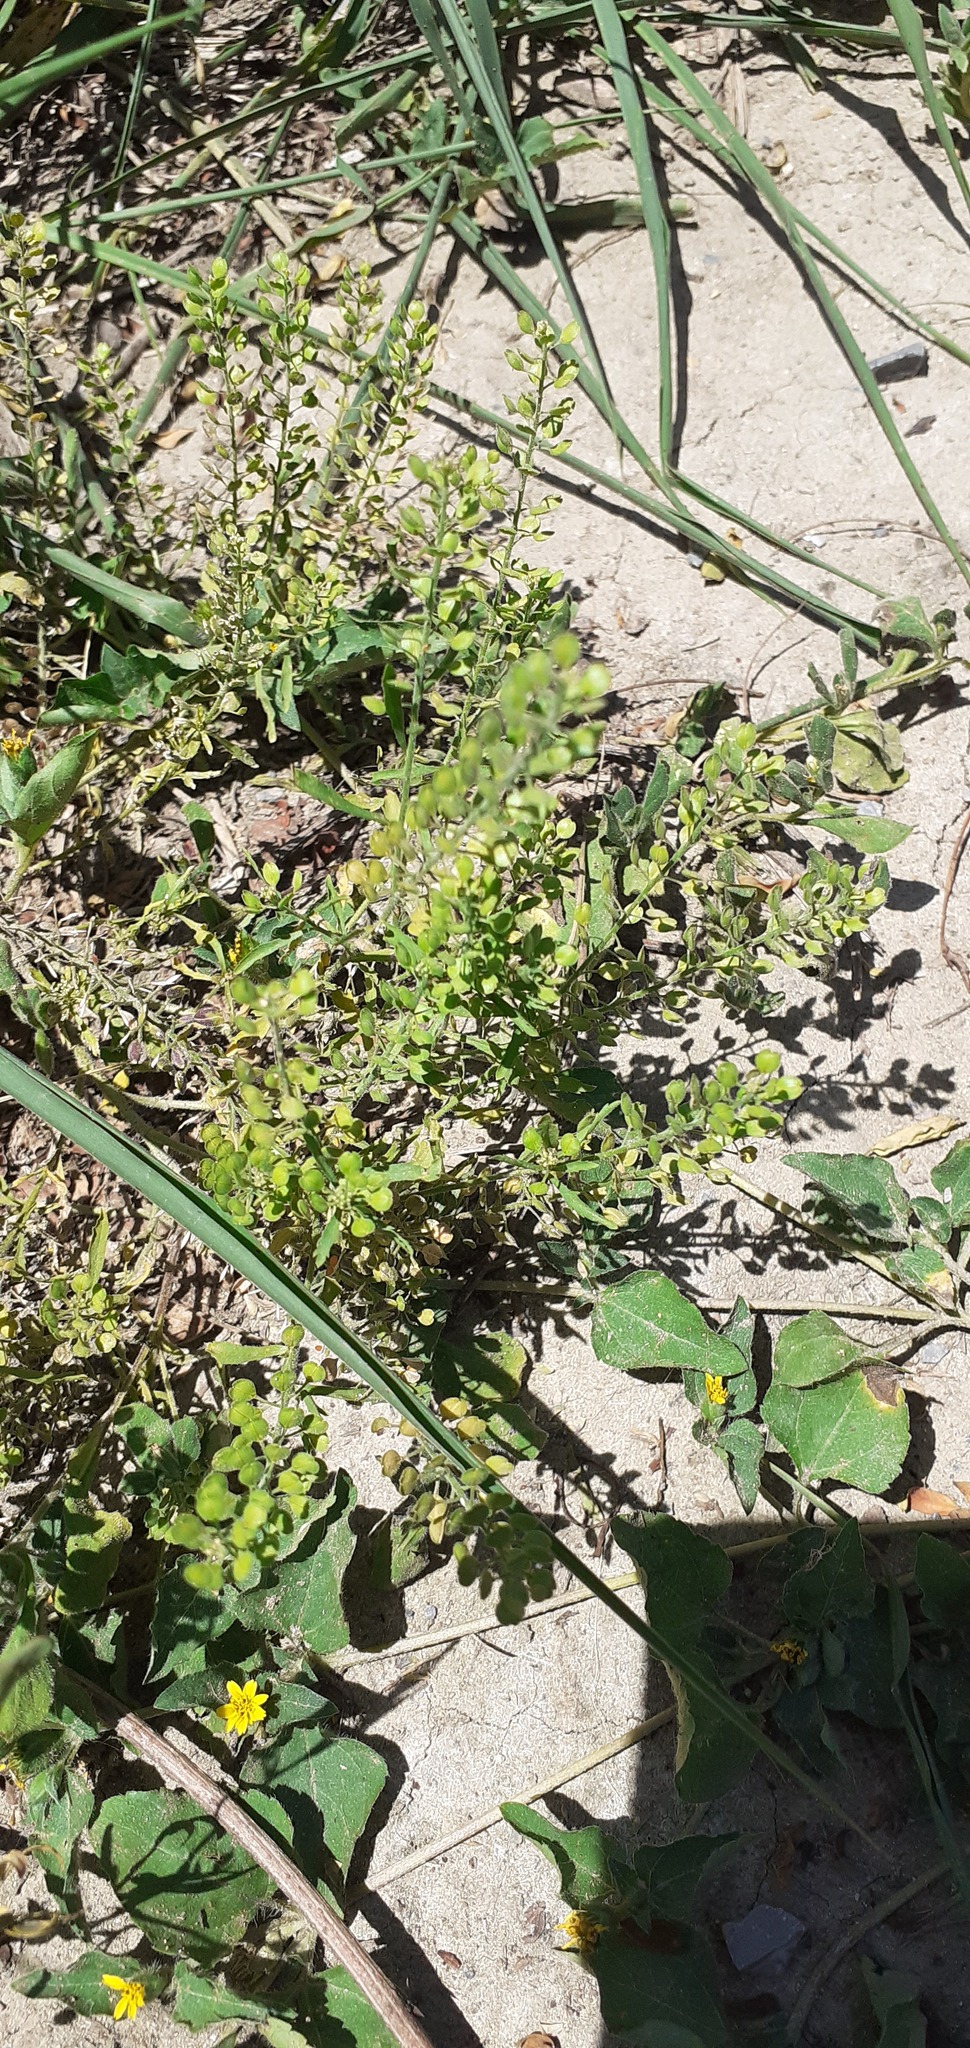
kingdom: Plantae
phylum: Tracheophyta
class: Magnoliopsida
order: Brassicales
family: Brassicaceae
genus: Lepidium
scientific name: Lepidium virginicum
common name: Least pepperwort
